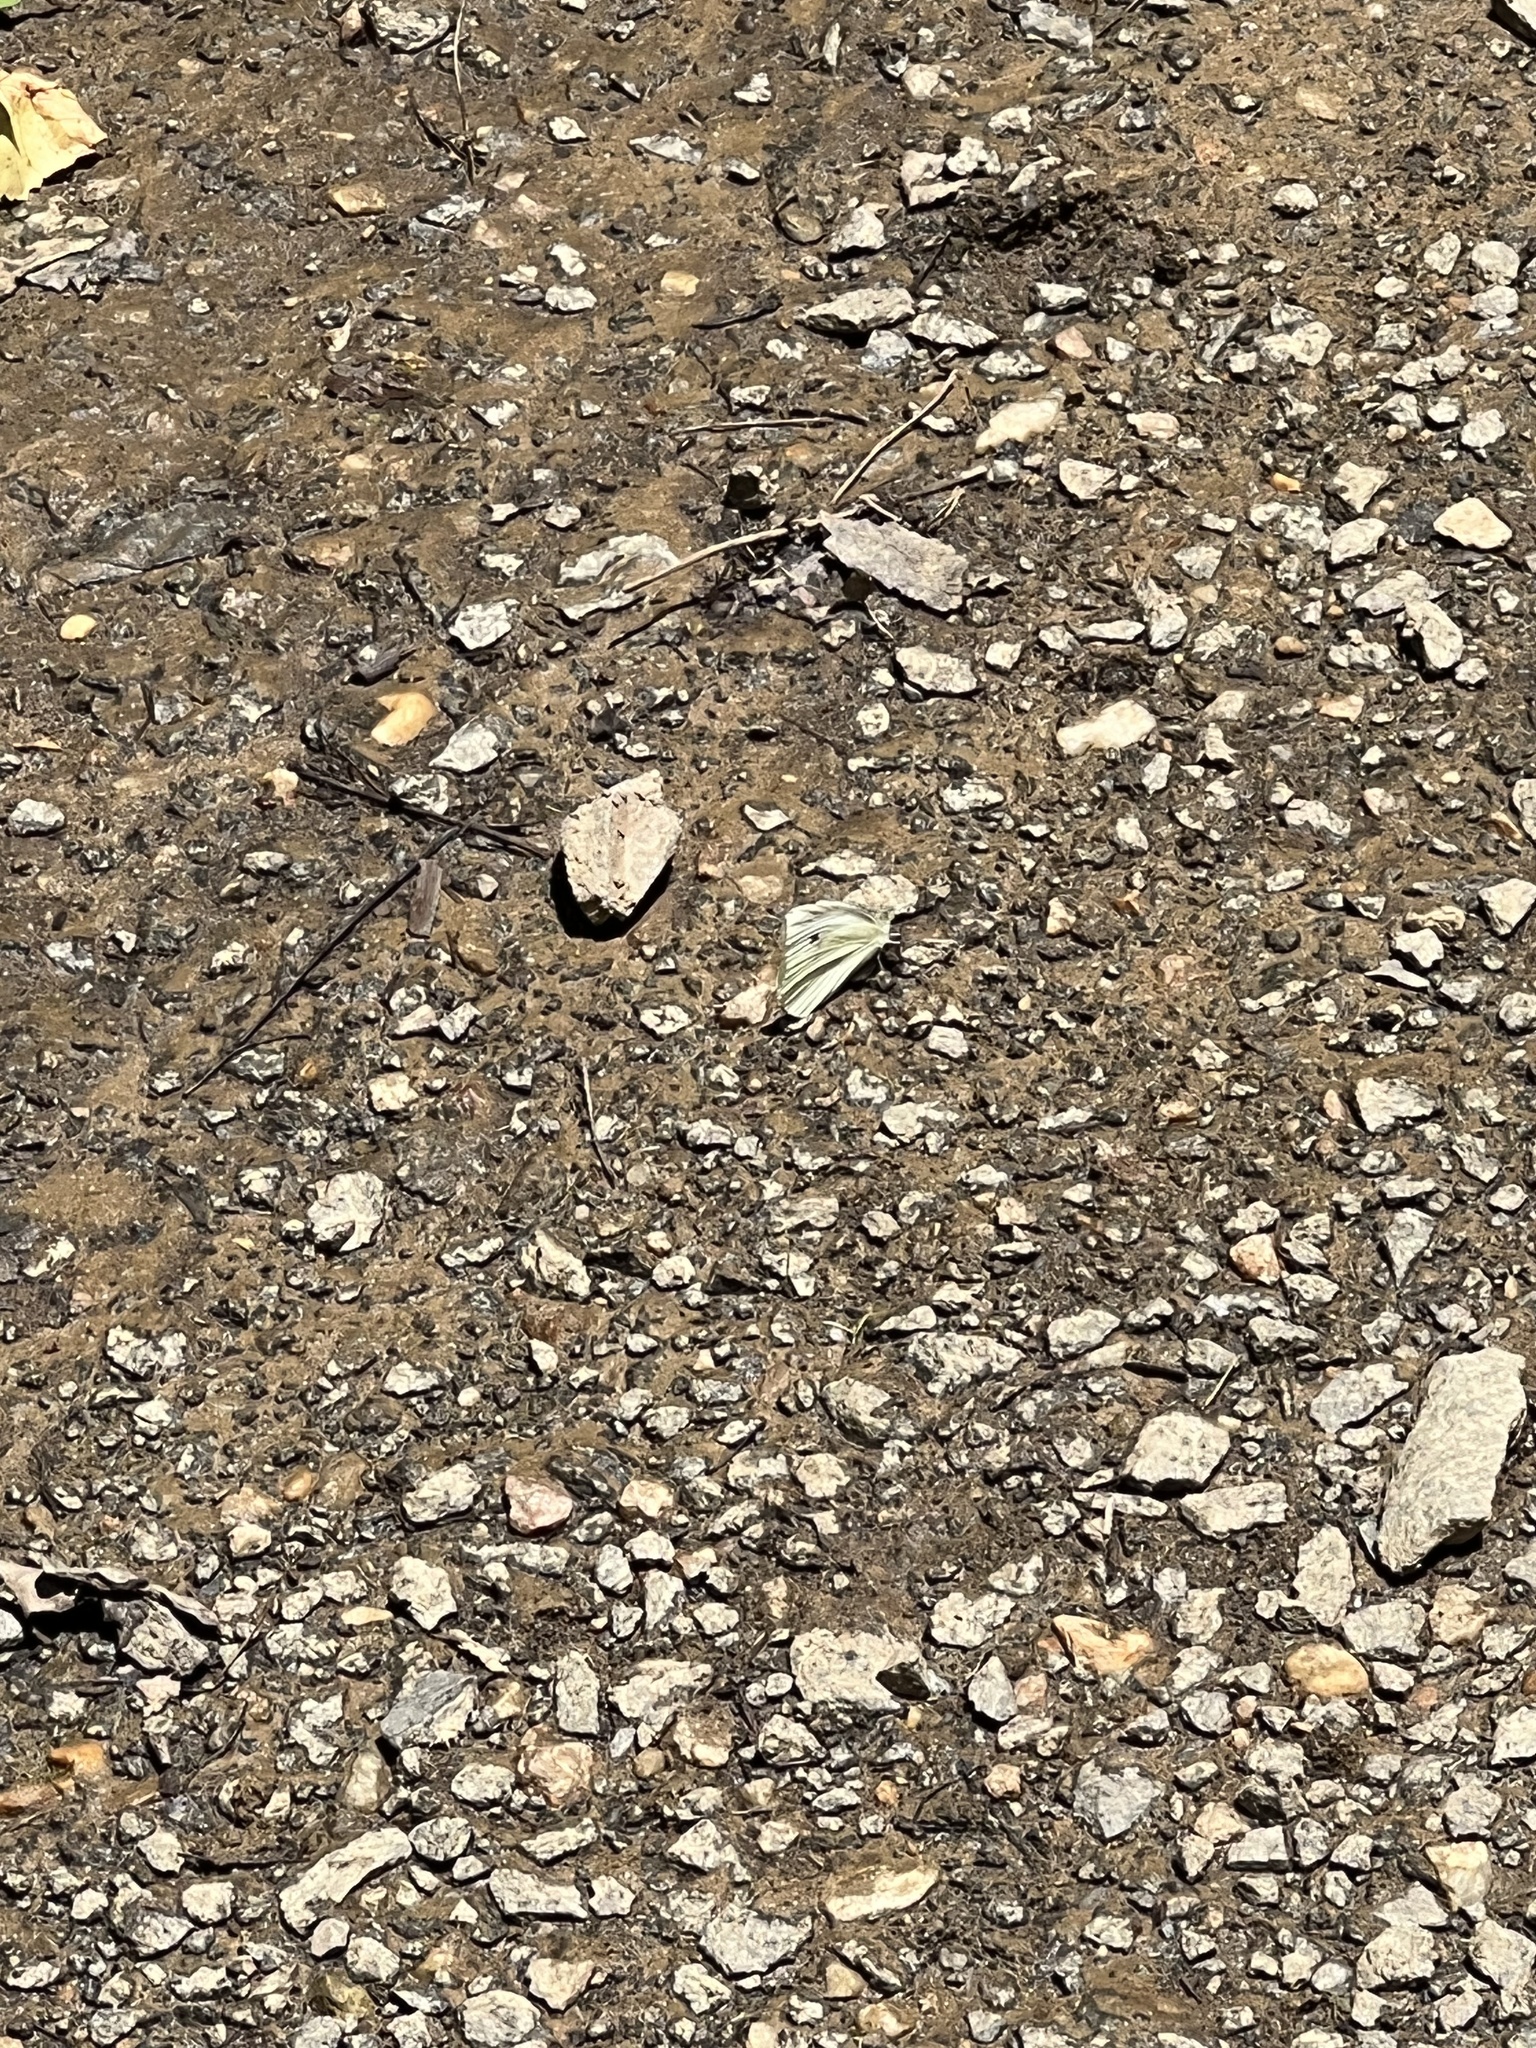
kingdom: Animalia
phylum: Arthropoda
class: Insecta
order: Lepidoptera
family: Pieridae
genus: Pieris
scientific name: Pieris rapae
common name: Small white
